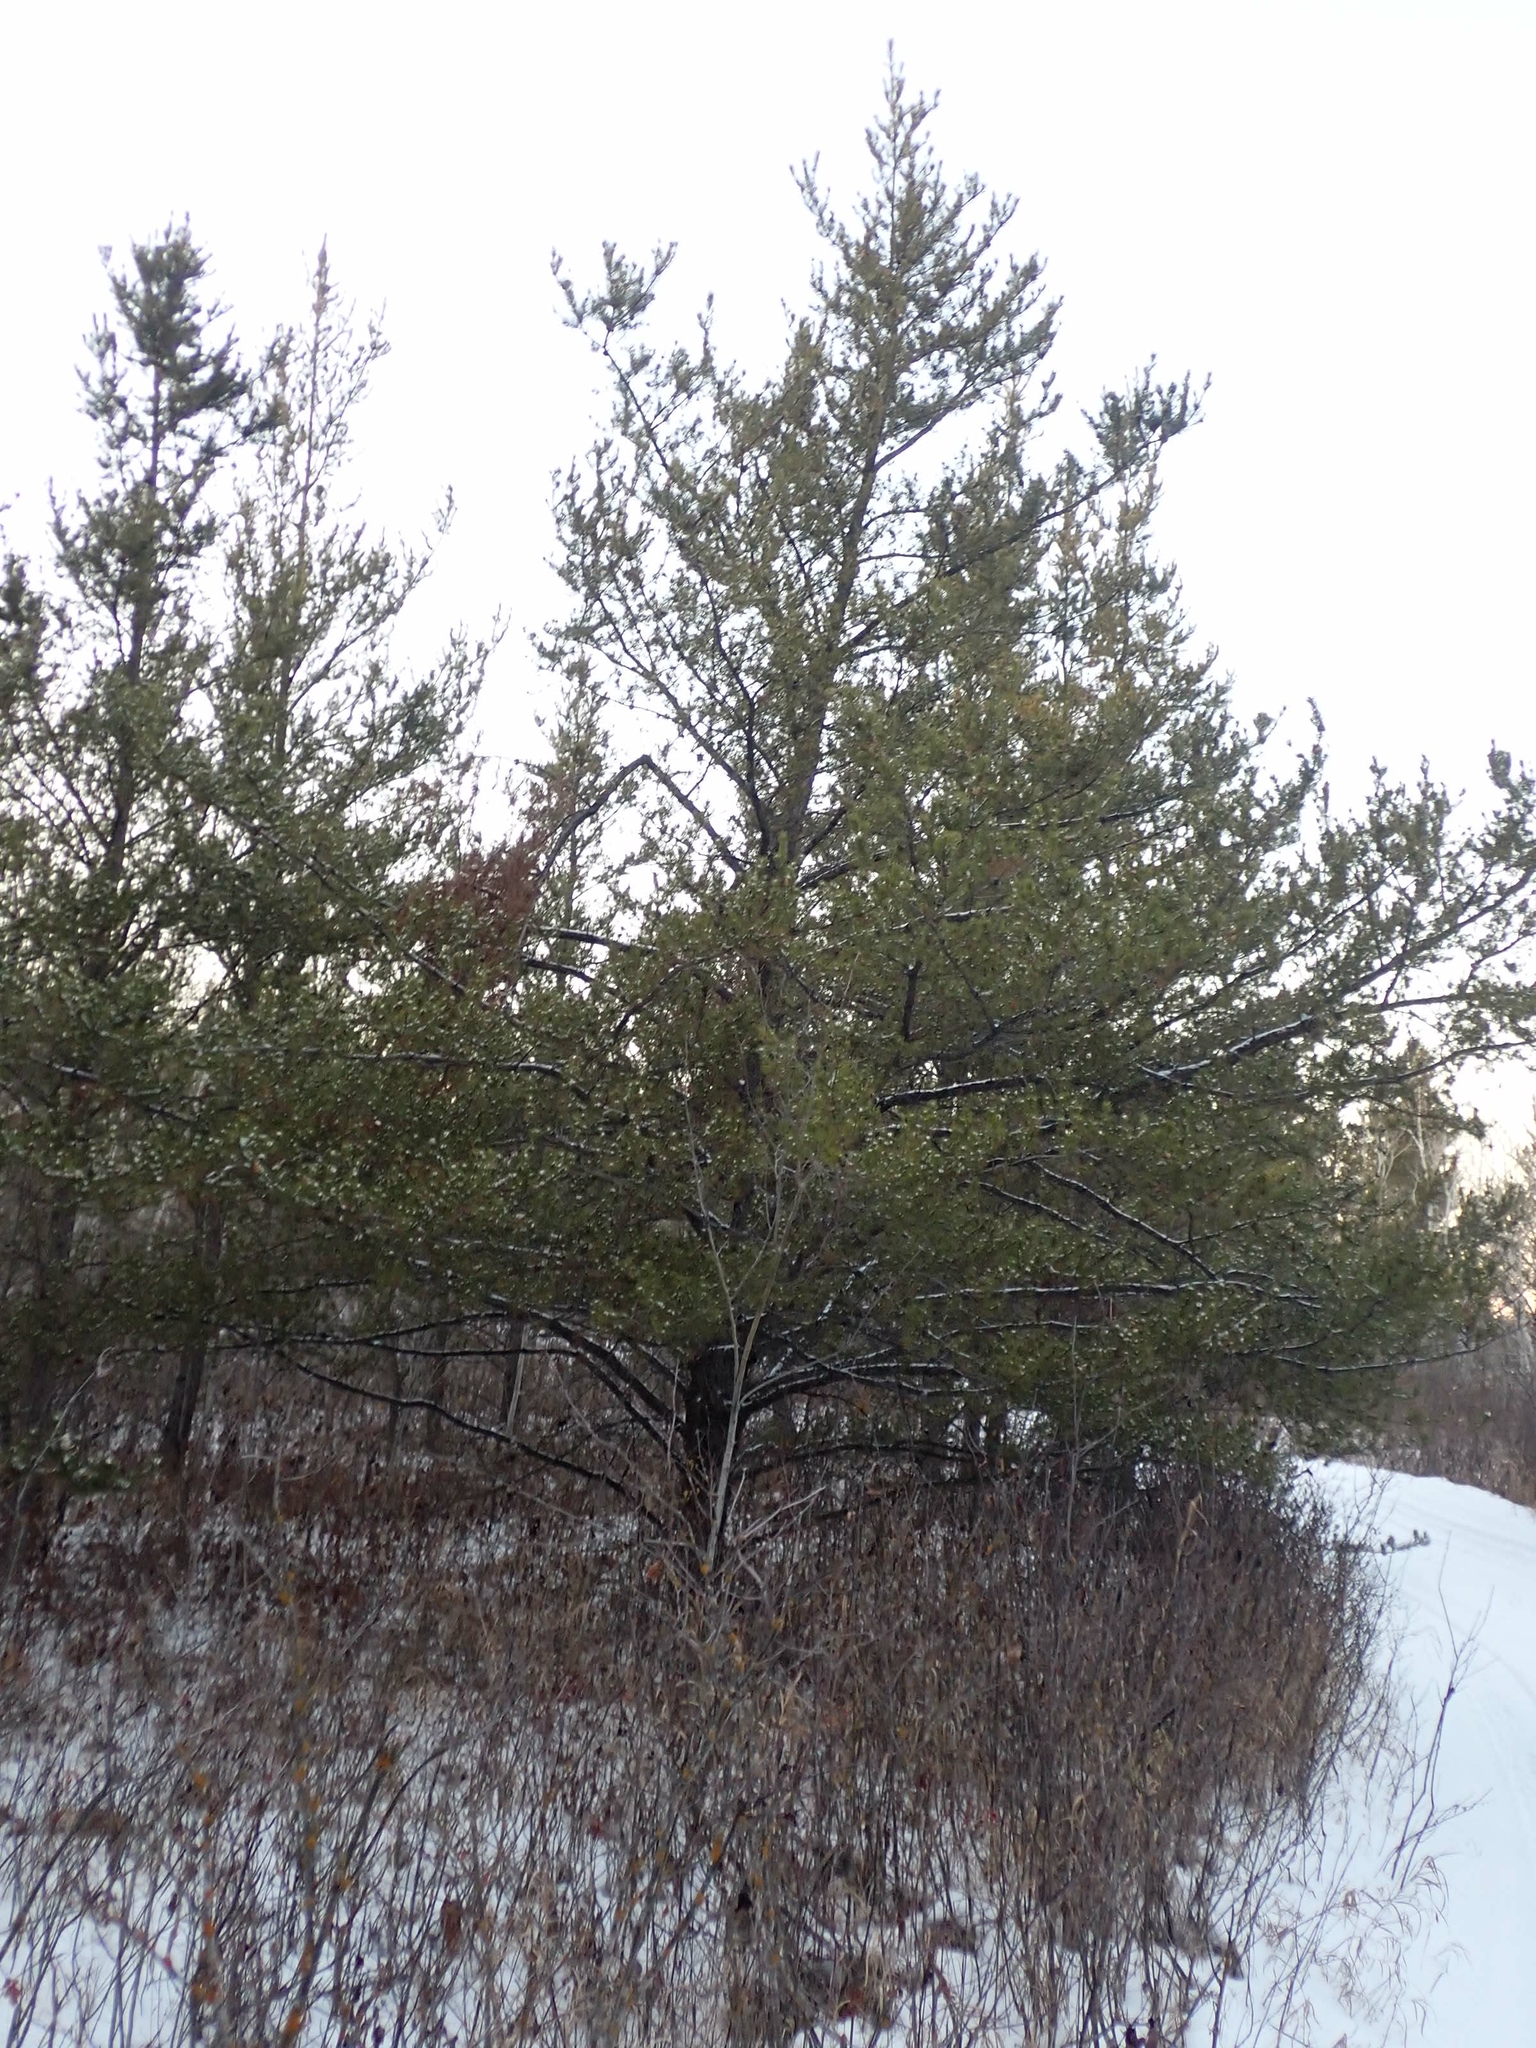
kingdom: Plantae
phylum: Tracheophyta
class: Pinopsida
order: Pinales
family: Pinaceae
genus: Pinus
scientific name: Pinus banksiana
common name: Jack pine
